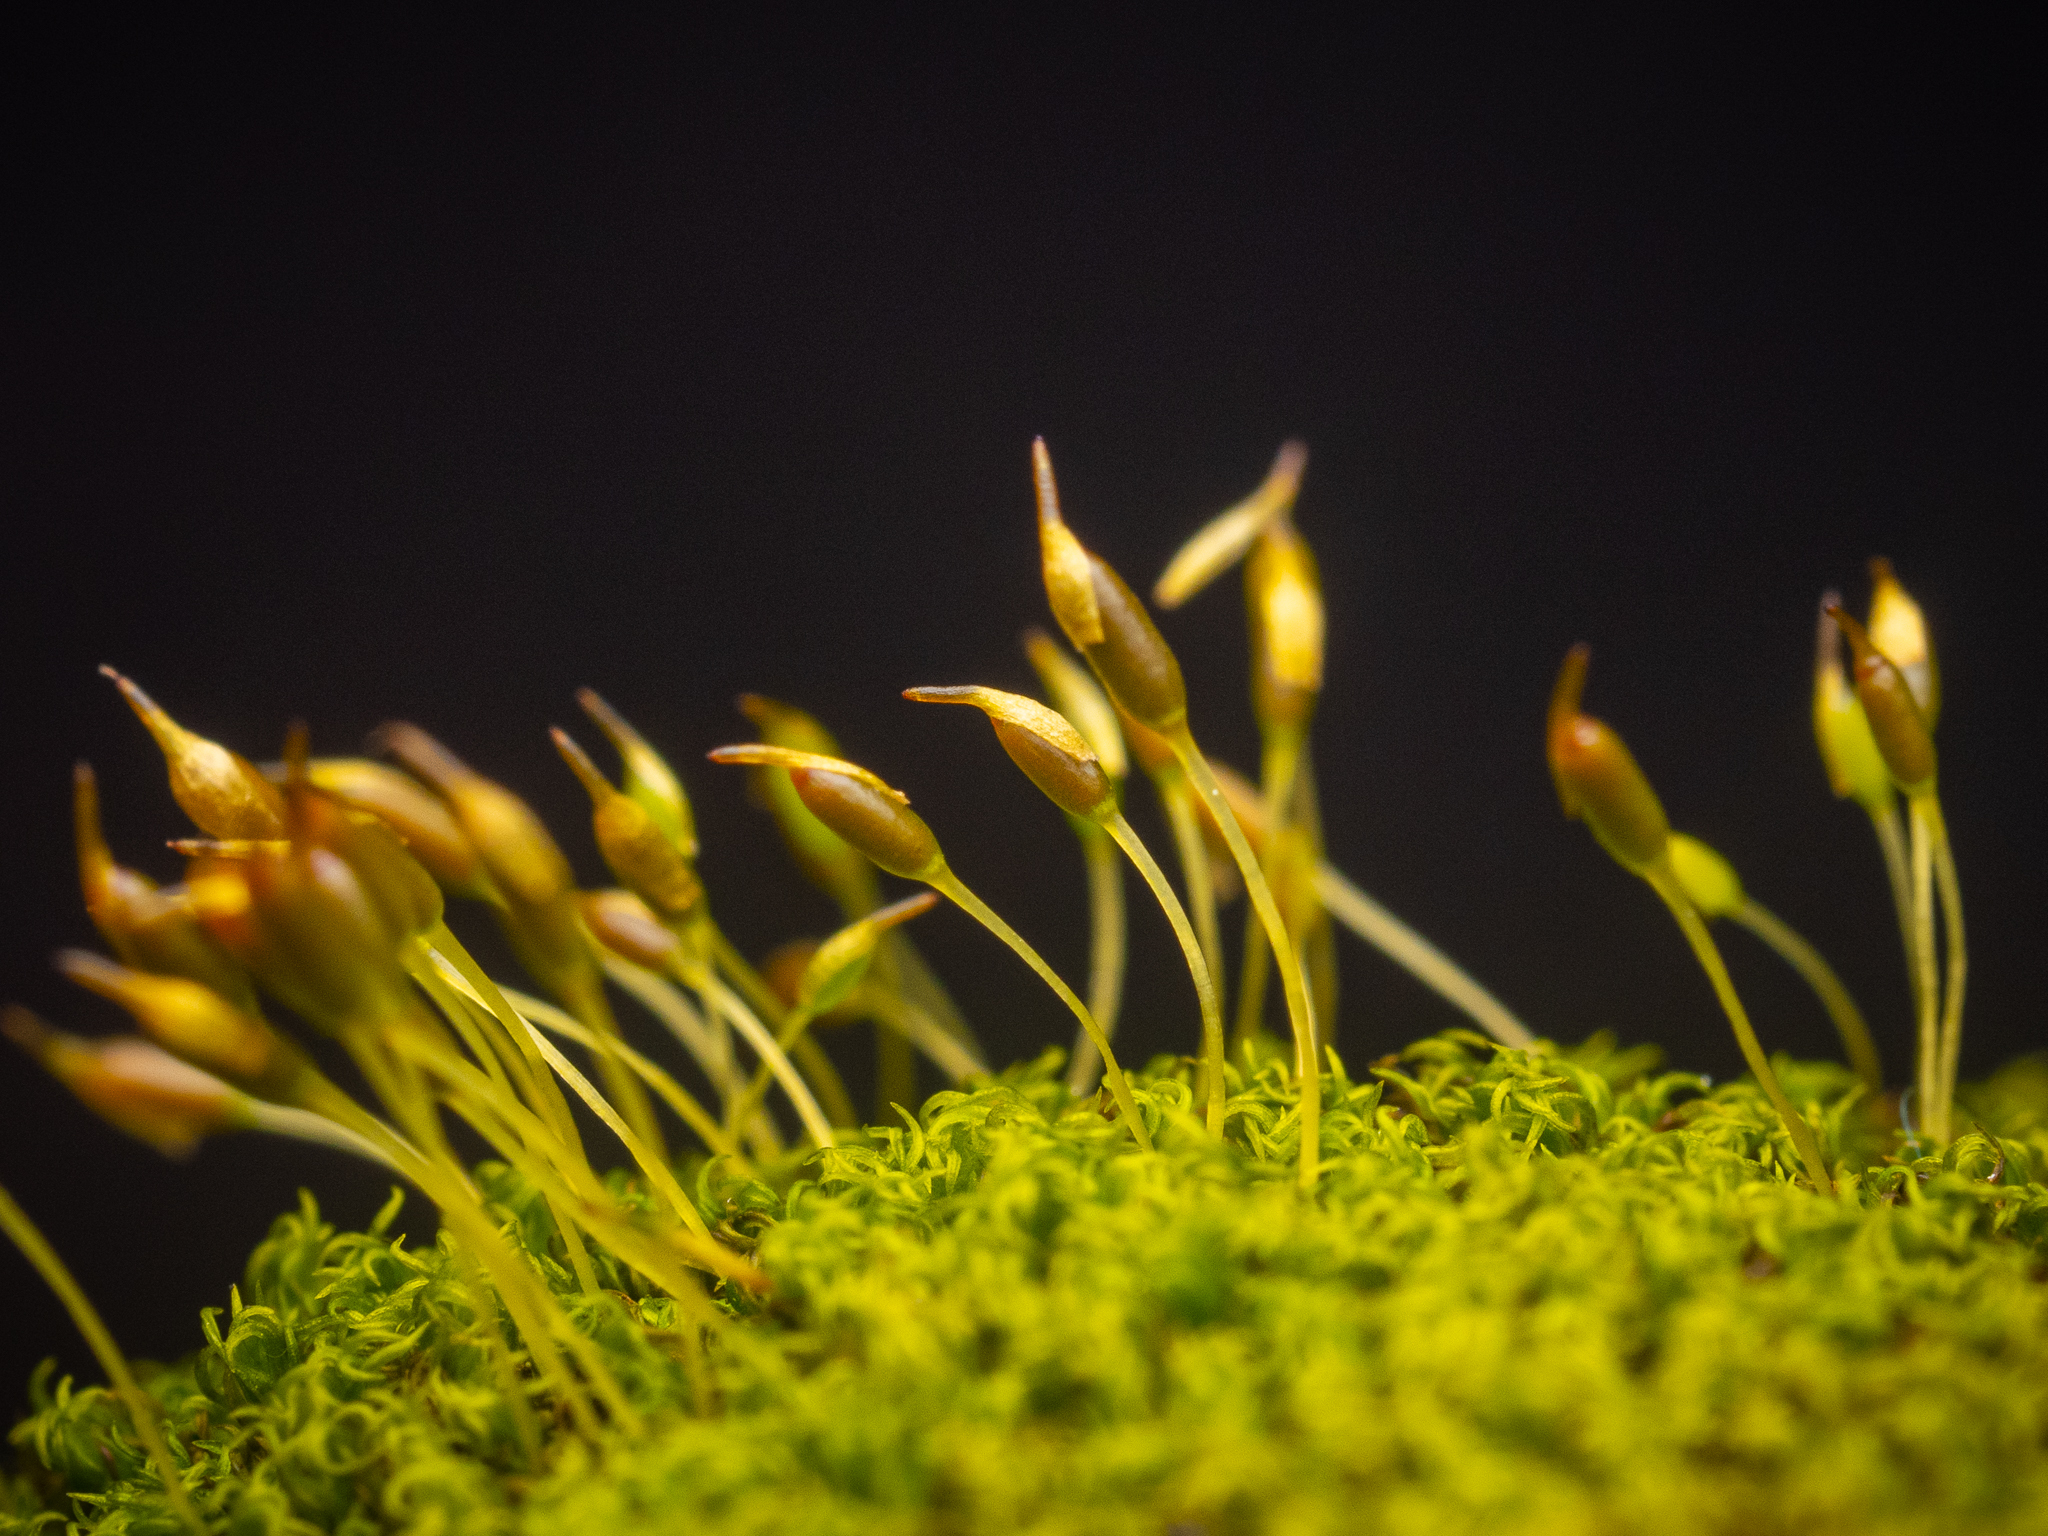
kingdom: Plantae
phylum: Bryophyta
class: Bryopsida
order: Dicranales
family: Rhabdoweisiaceae
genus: Dicranoweisia
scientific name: Dicranoweisia cirrata
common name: Common pincushion
